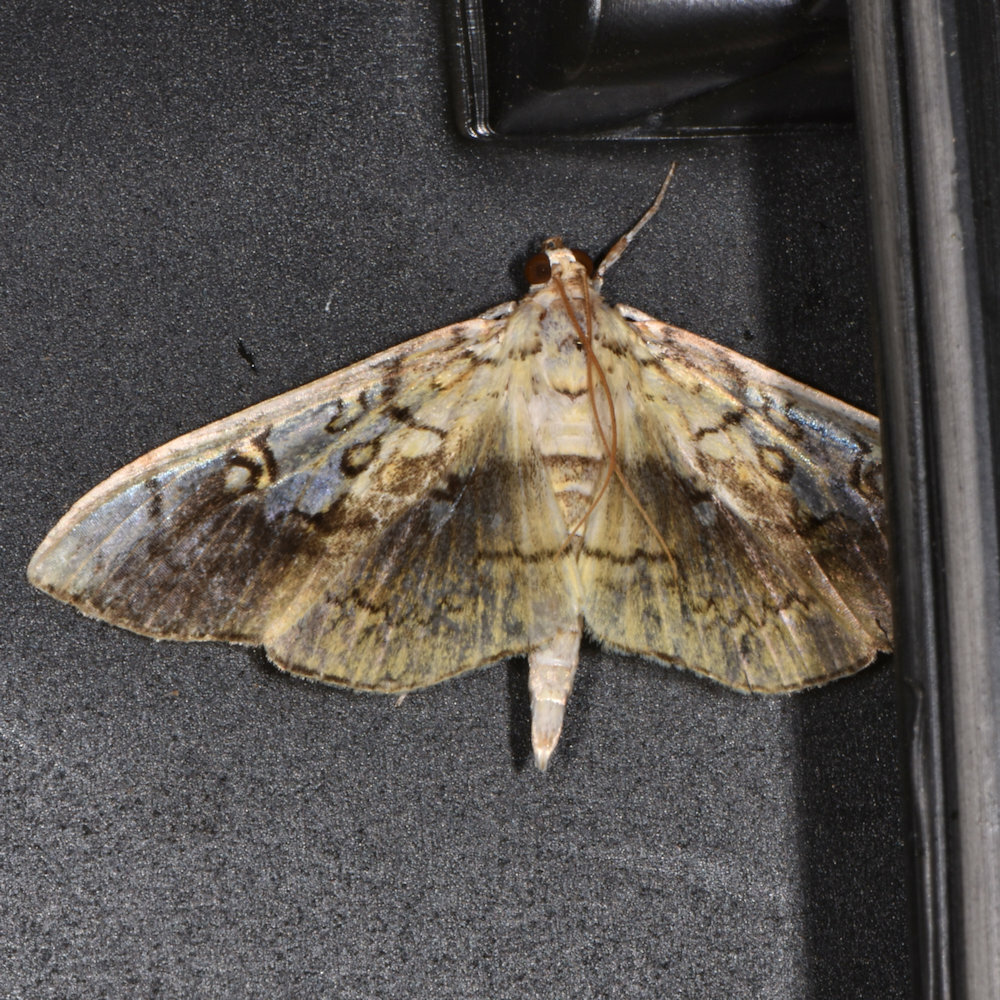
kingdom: Animalia
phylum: Arthropoda
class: Insecta
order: Lepidoptera
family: Crambidae
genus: Pantographa
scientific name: Pantographa limata
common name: Basswood leafroller moth
